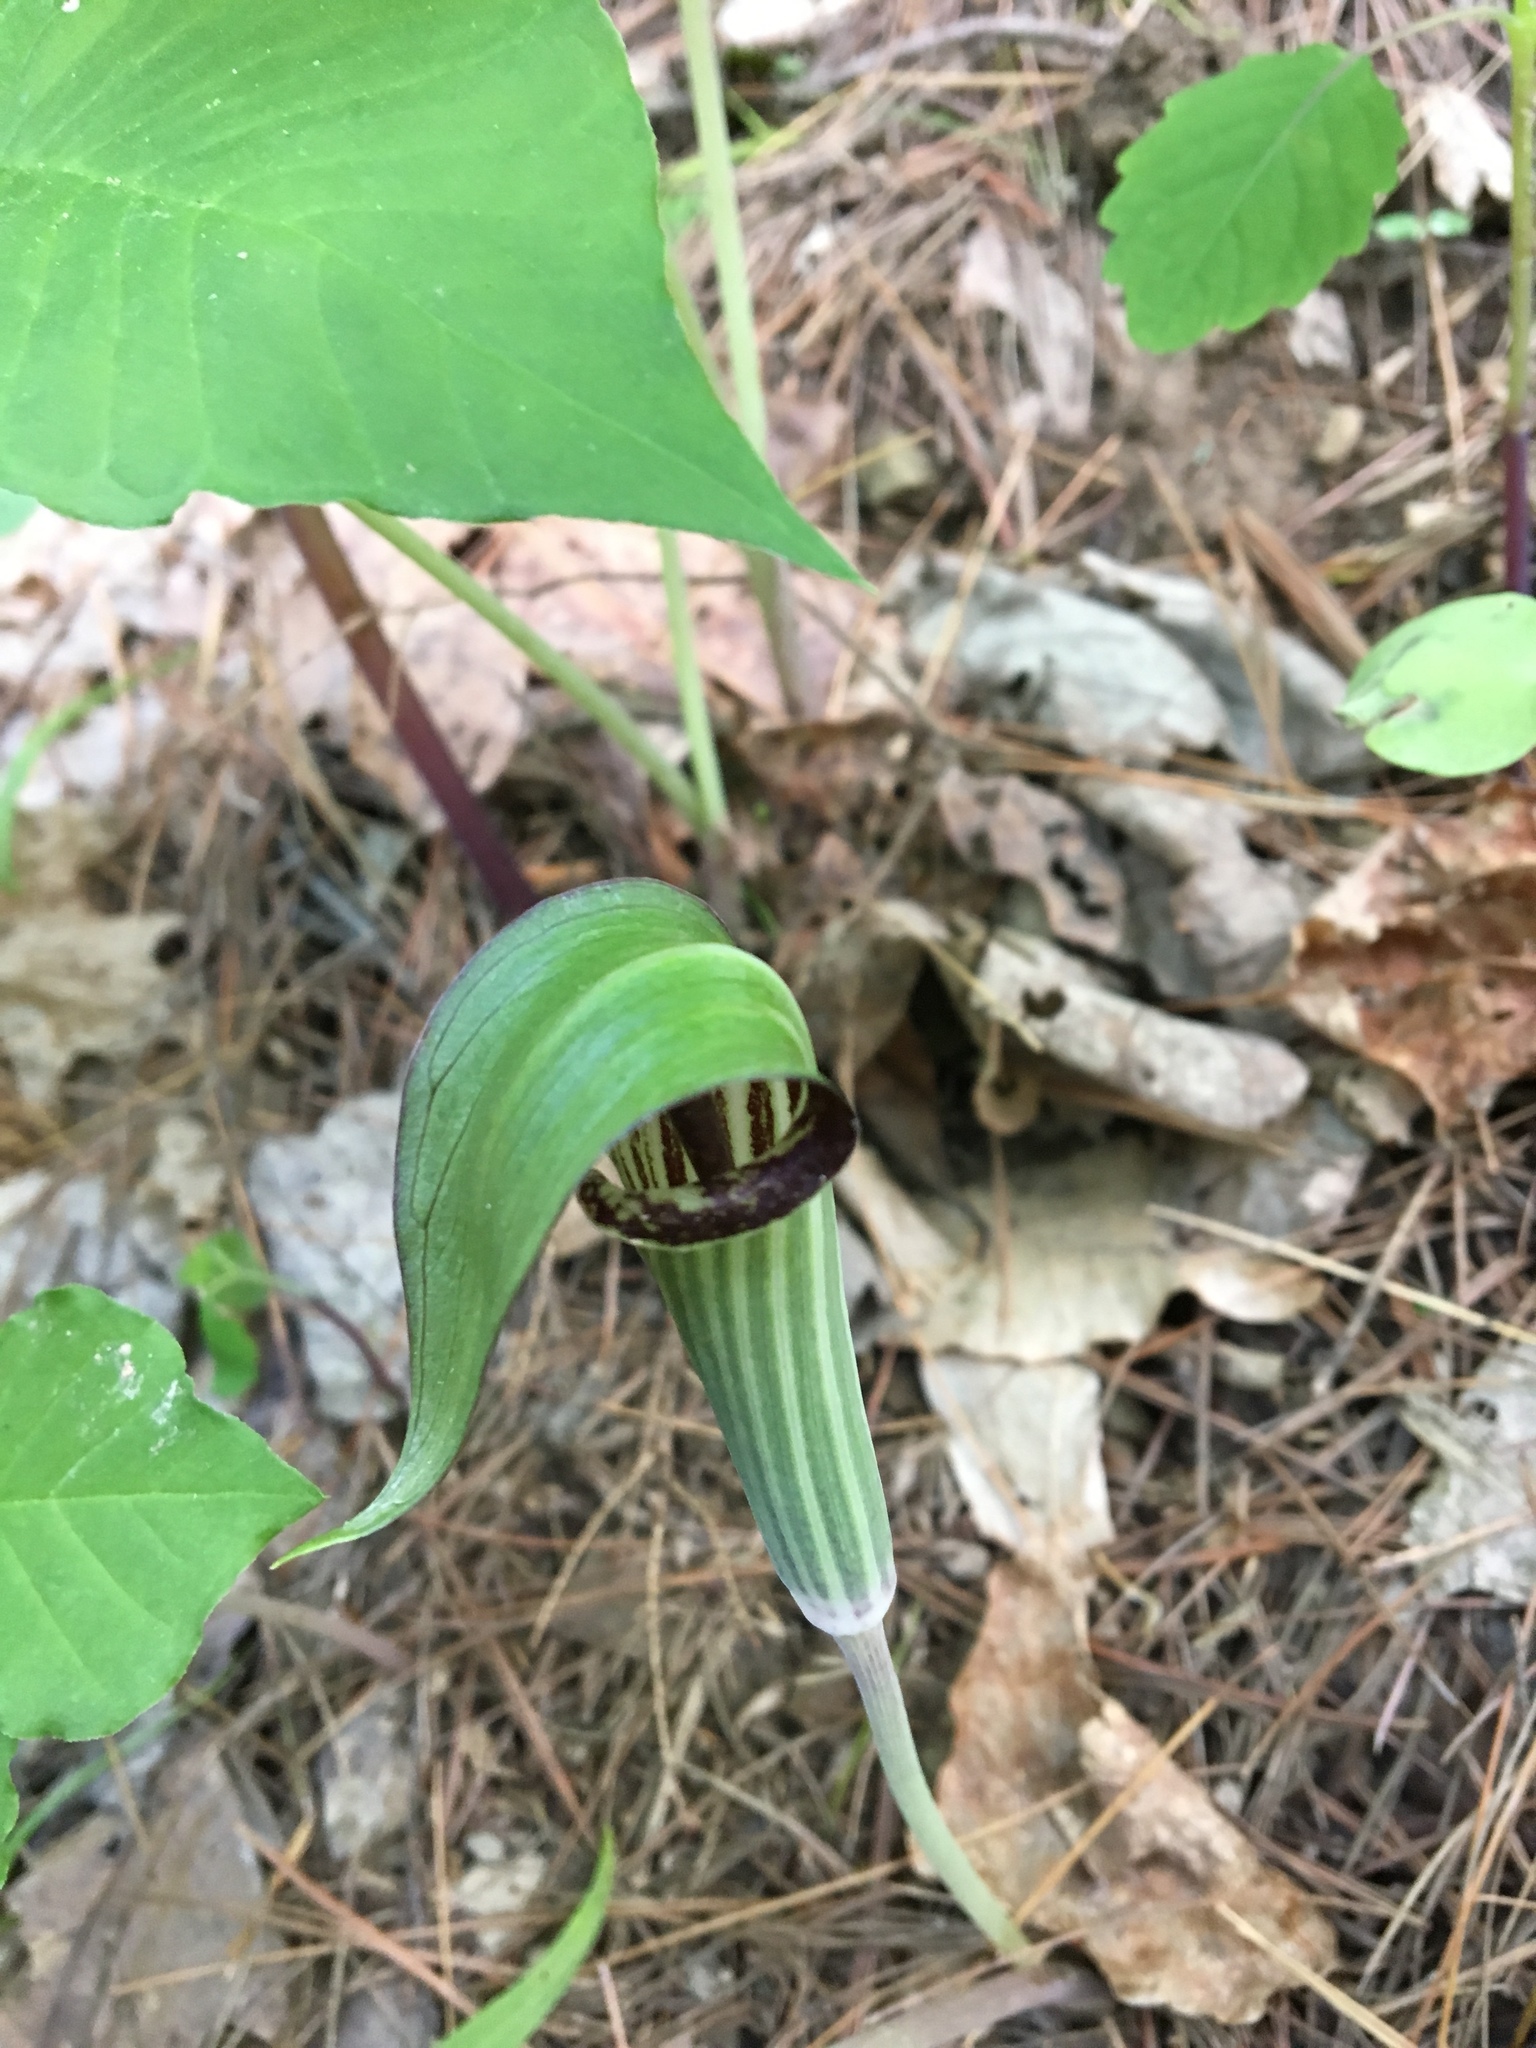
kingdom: Plantae
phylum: Tracheophyta
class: Liliopsida
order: Alismatales
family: Araceae
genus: Arisaema
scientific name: Arisaema triphyllum
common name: Jack-in-the-pulpit
